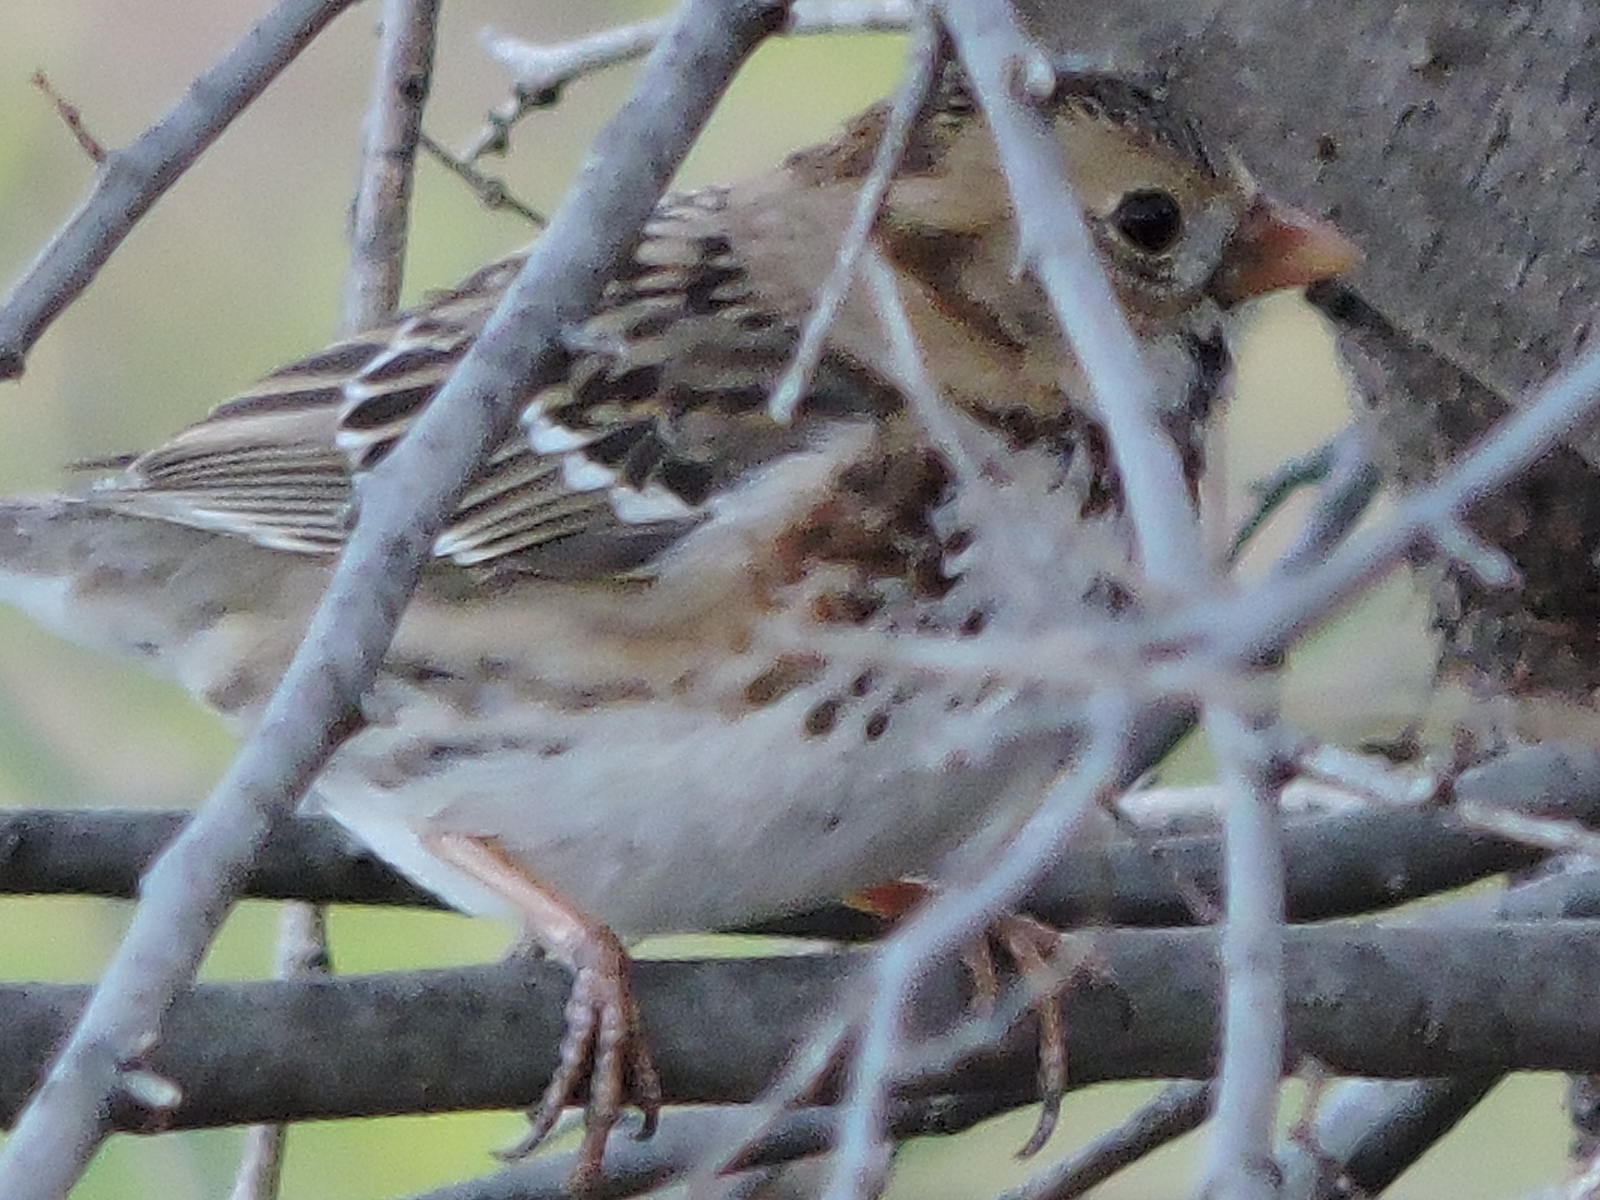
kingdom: Animalia
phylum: Chordata
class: Aves
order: Passeriformes
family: Passerellidae
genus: Zonotrichia
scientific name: Zonotrichia querula
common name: Harris's sparrow
